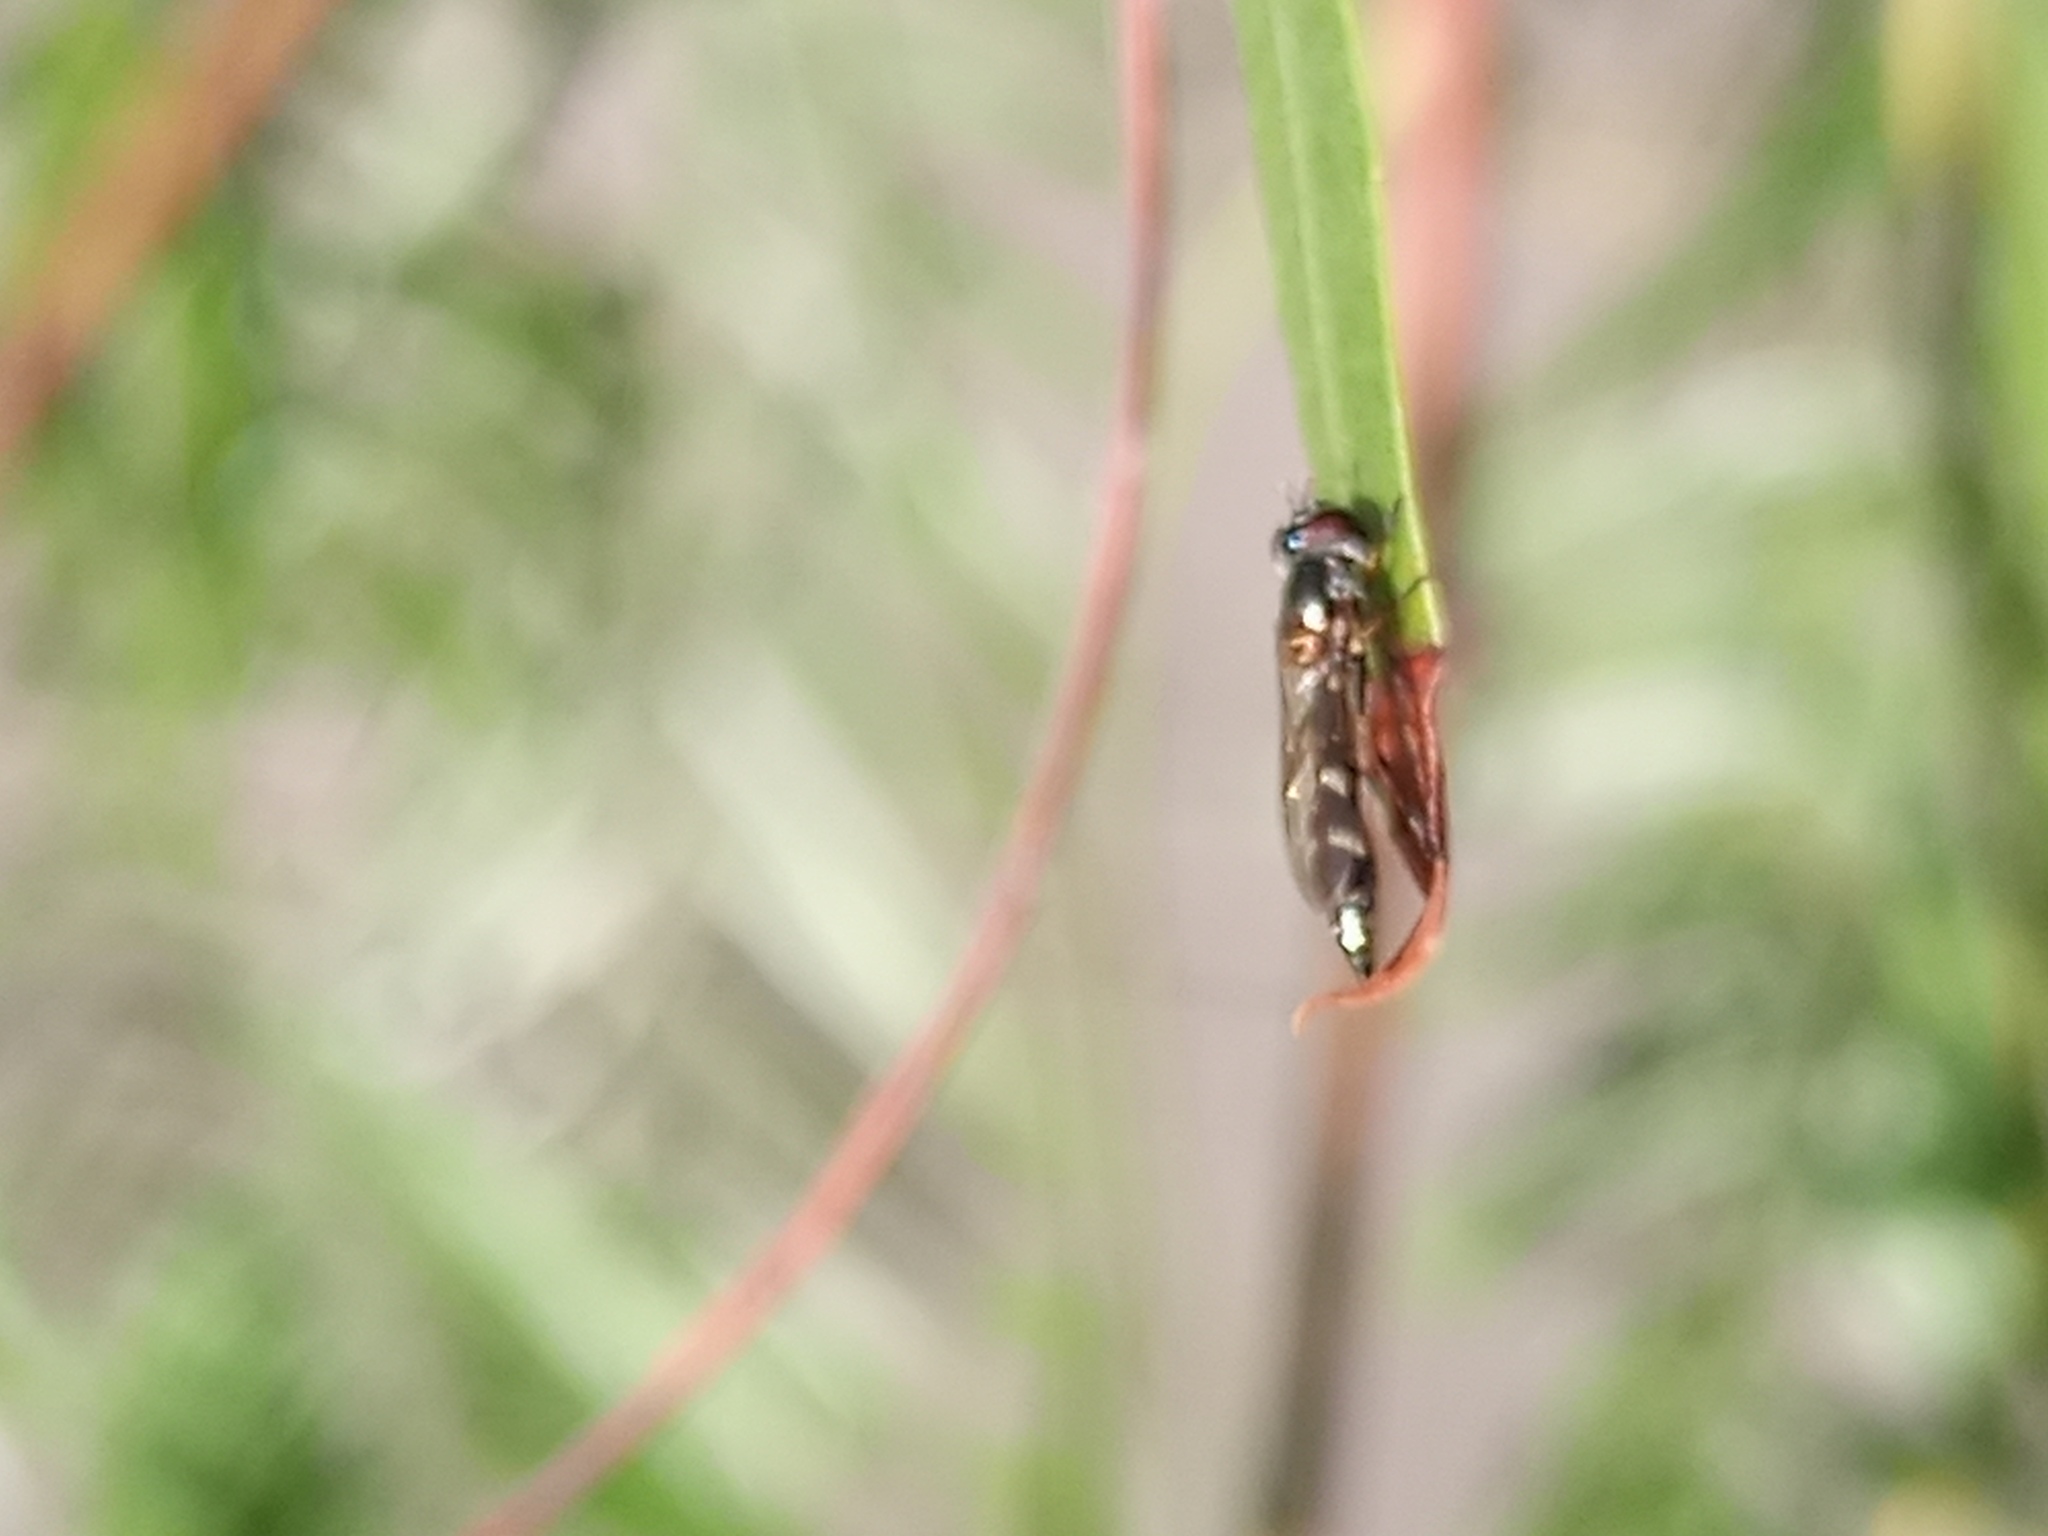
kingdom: Animalia
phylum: Arthropoda
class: Insecta
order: Diptera
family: Syrphidae
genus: Dioprosopa
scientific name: Dioprosopa clavatus
